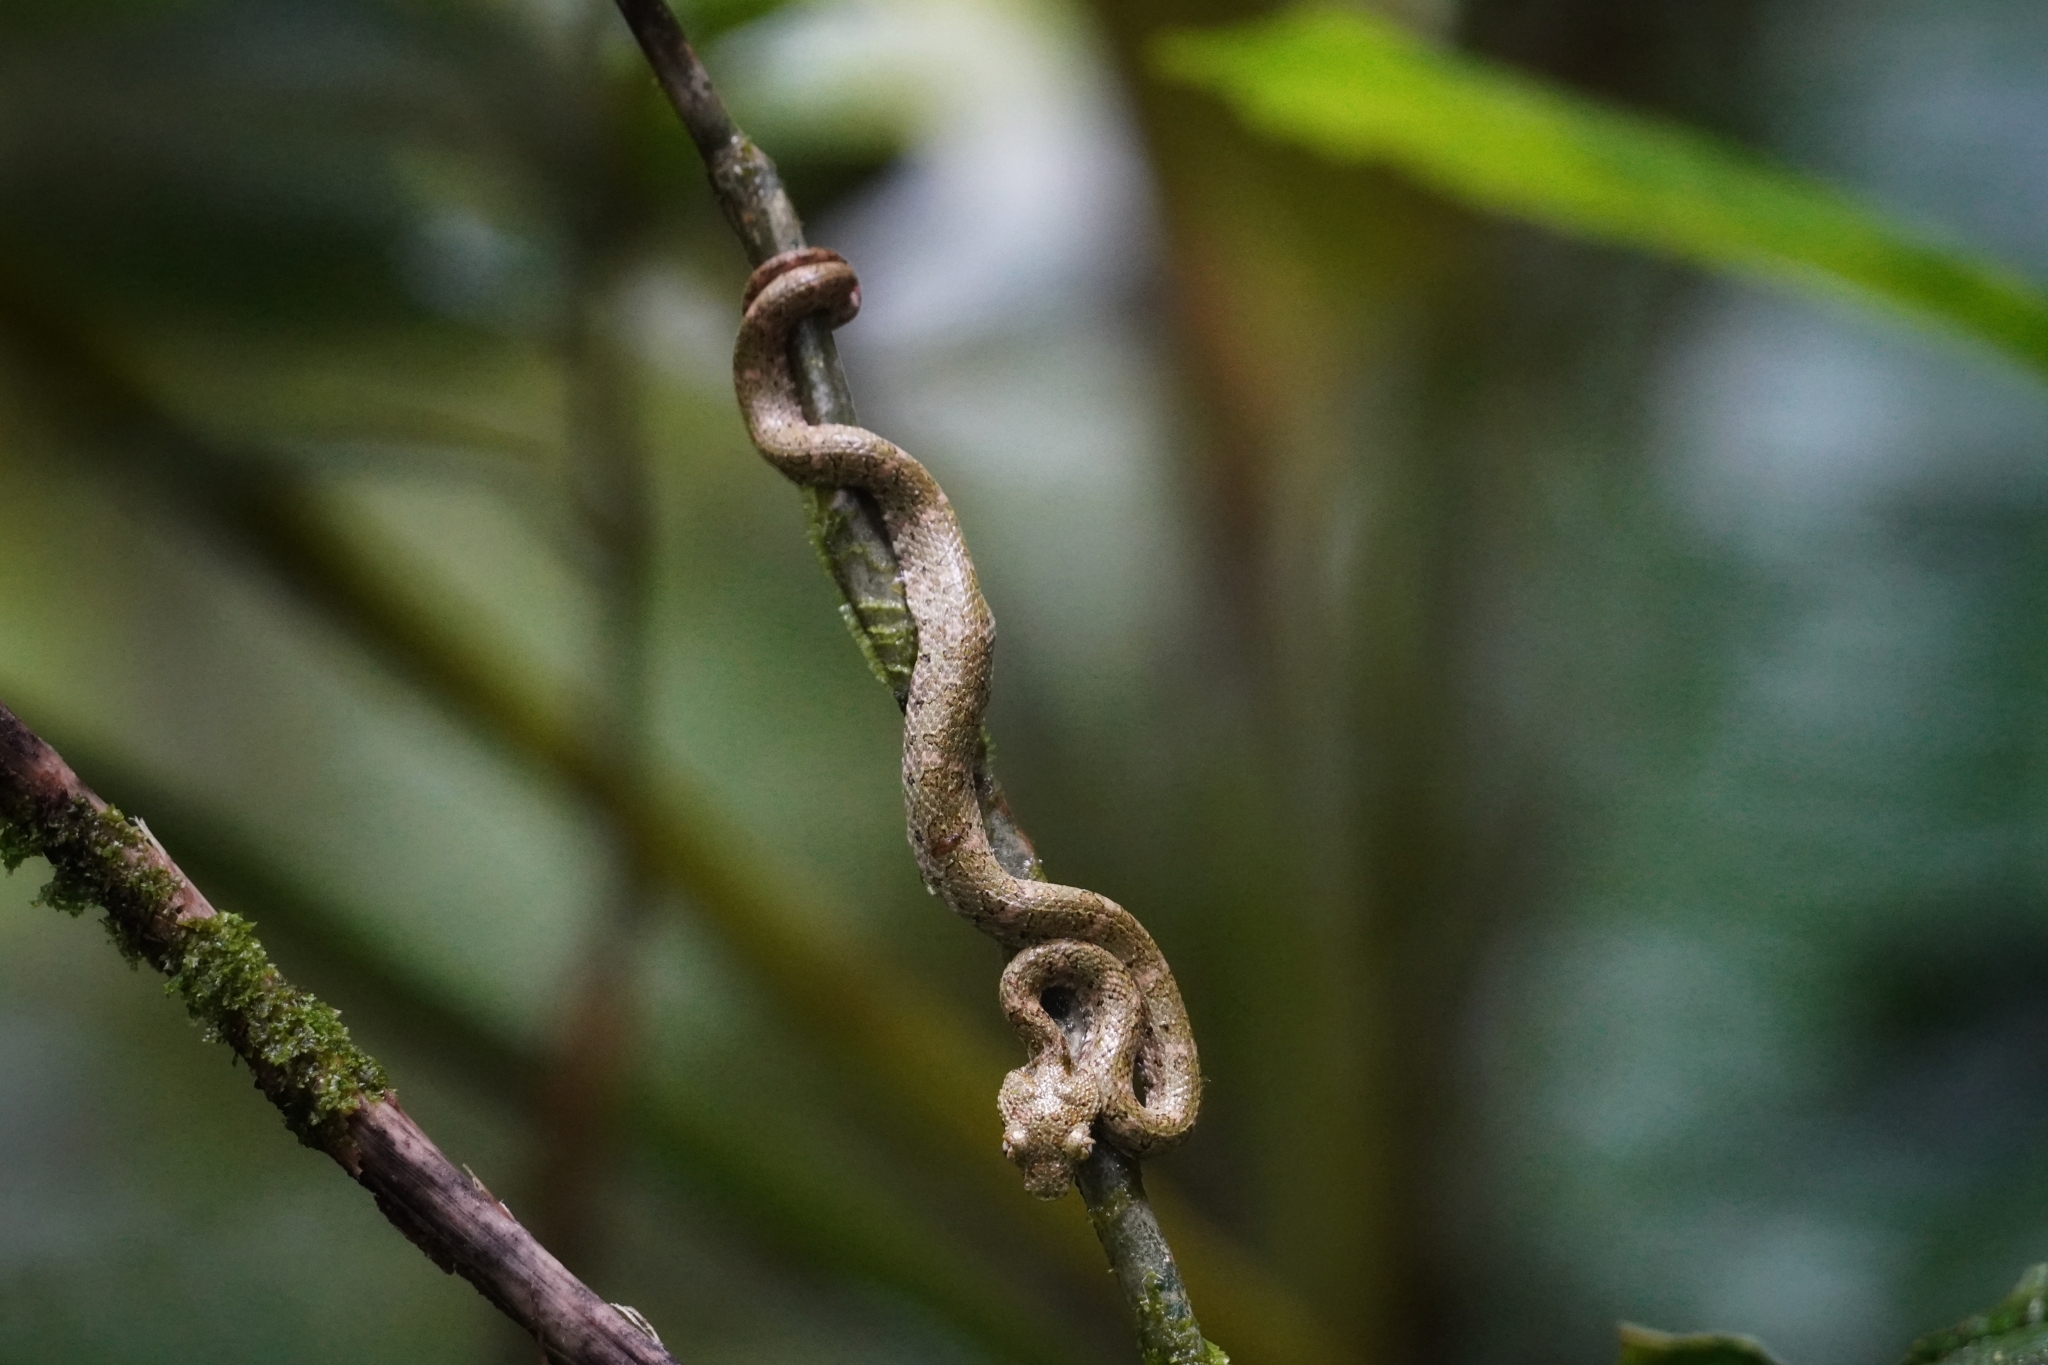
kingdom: Animalia
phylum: Chordata
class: Squamata
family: Viperidae
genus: Bothriechis
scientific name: Bothriechis schlegelii
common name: Eyelash viper
